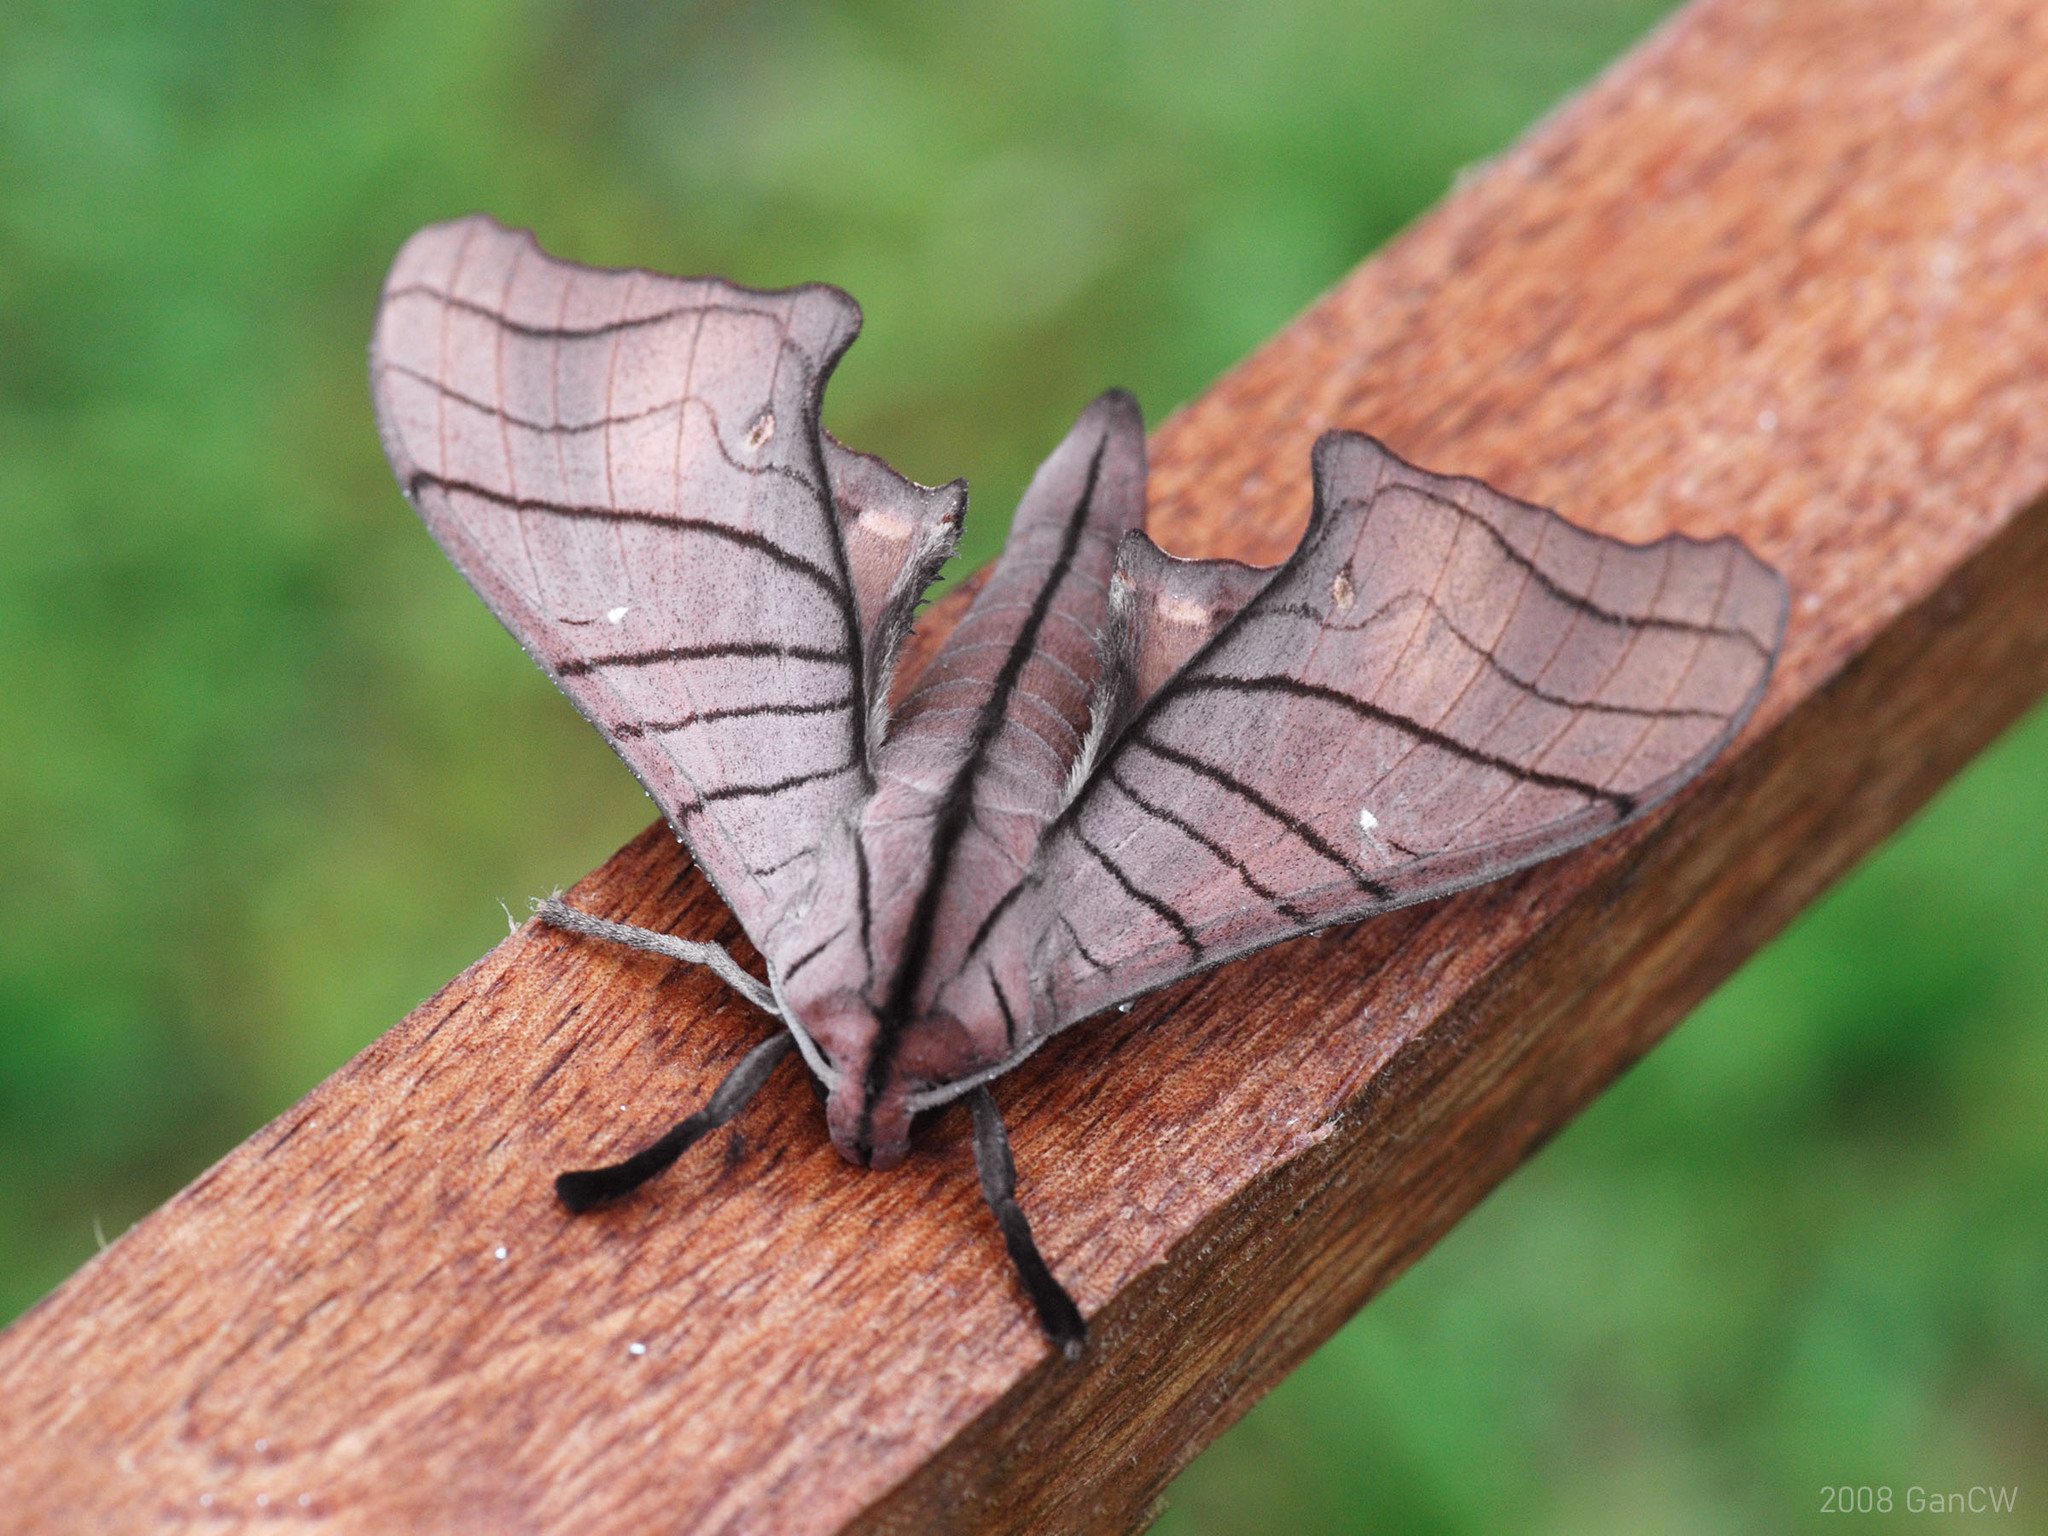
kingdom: Animalia
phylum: Arthropoda
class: Insecta
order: Lepidoptera
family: Sphingidae
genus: Marumba
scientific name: Marumba cristata
